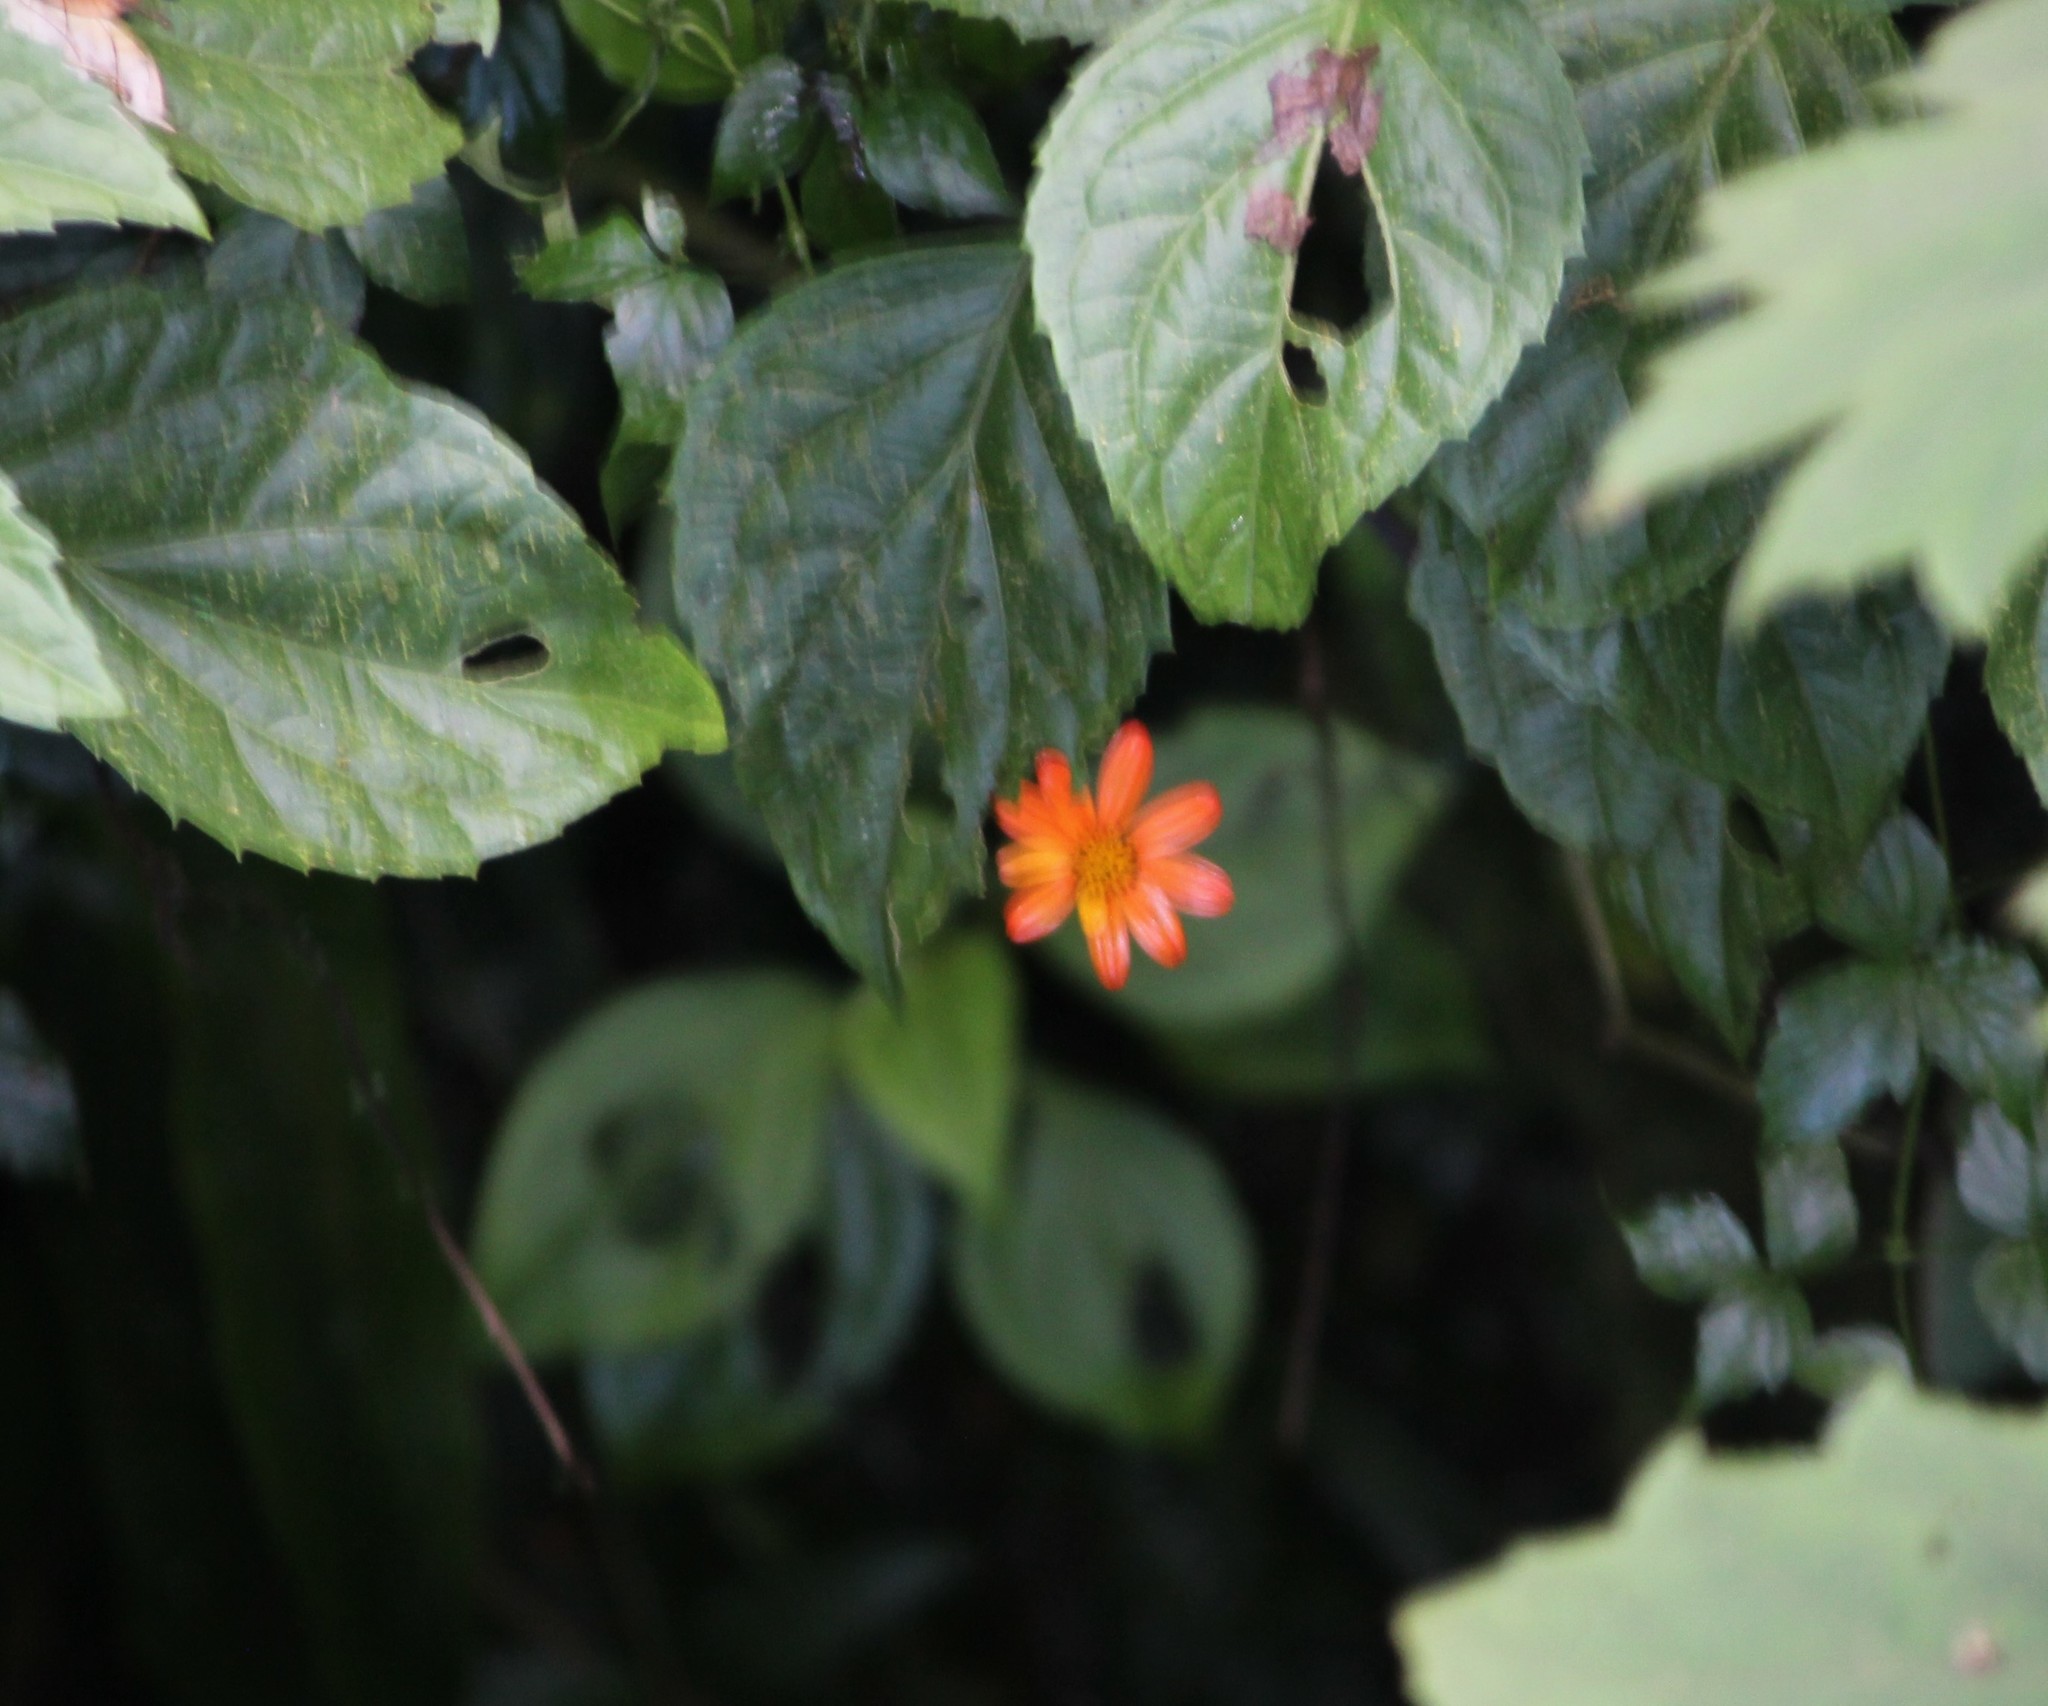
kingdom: Plantae
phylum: Tracheophyta
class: Magnoliopsida
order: Asterales
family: Asteraceae
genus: Hidalgoa
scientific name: Hidalgoa ternata
